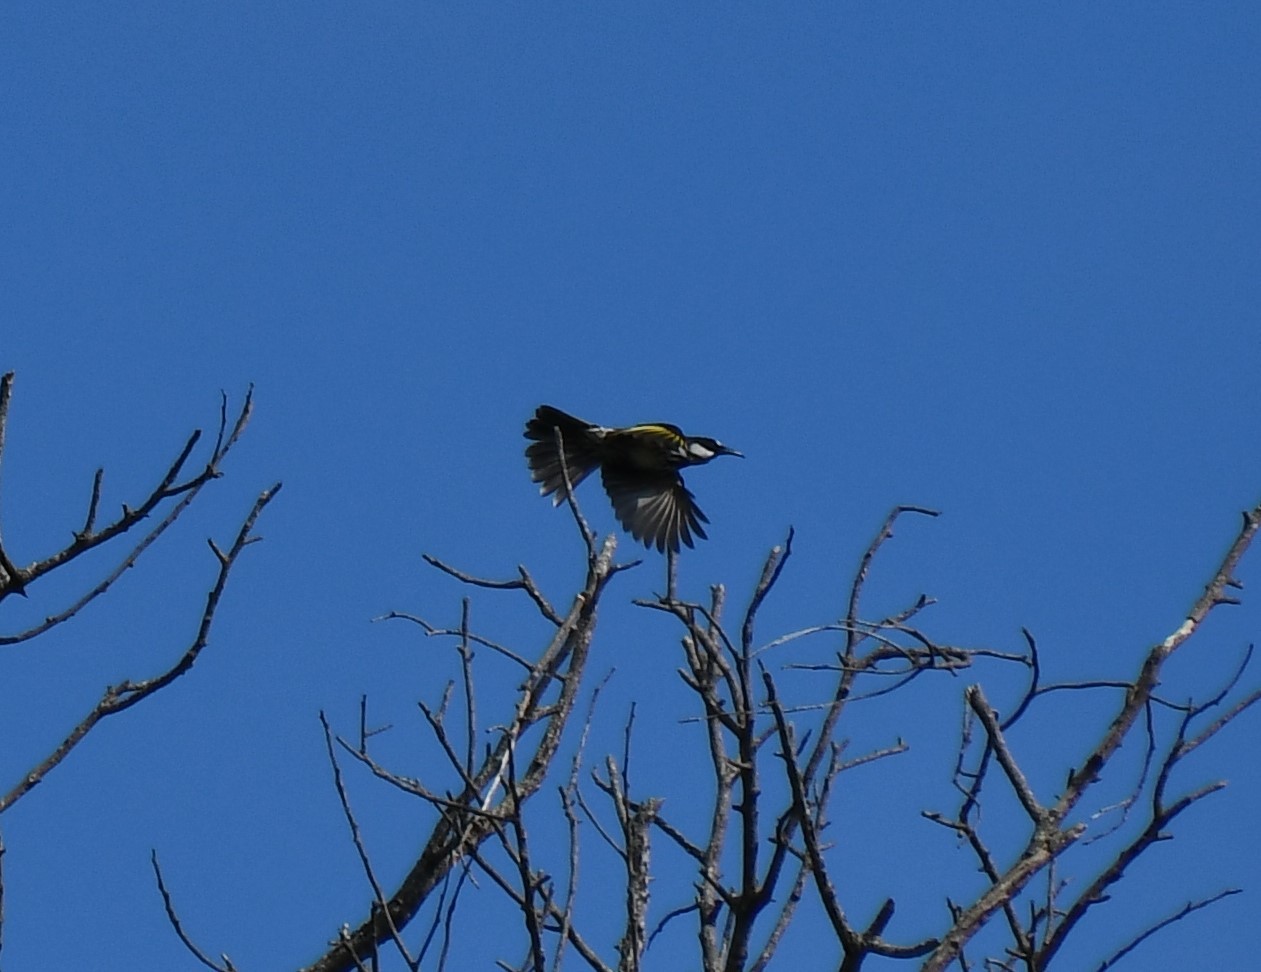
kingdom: Animalia
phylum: Chordata
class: Aves
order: Passeriformes
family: Meliphagidae
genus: Phylidonyris
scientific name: Phylidonyris niger
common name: White-cheeked honeyeater
